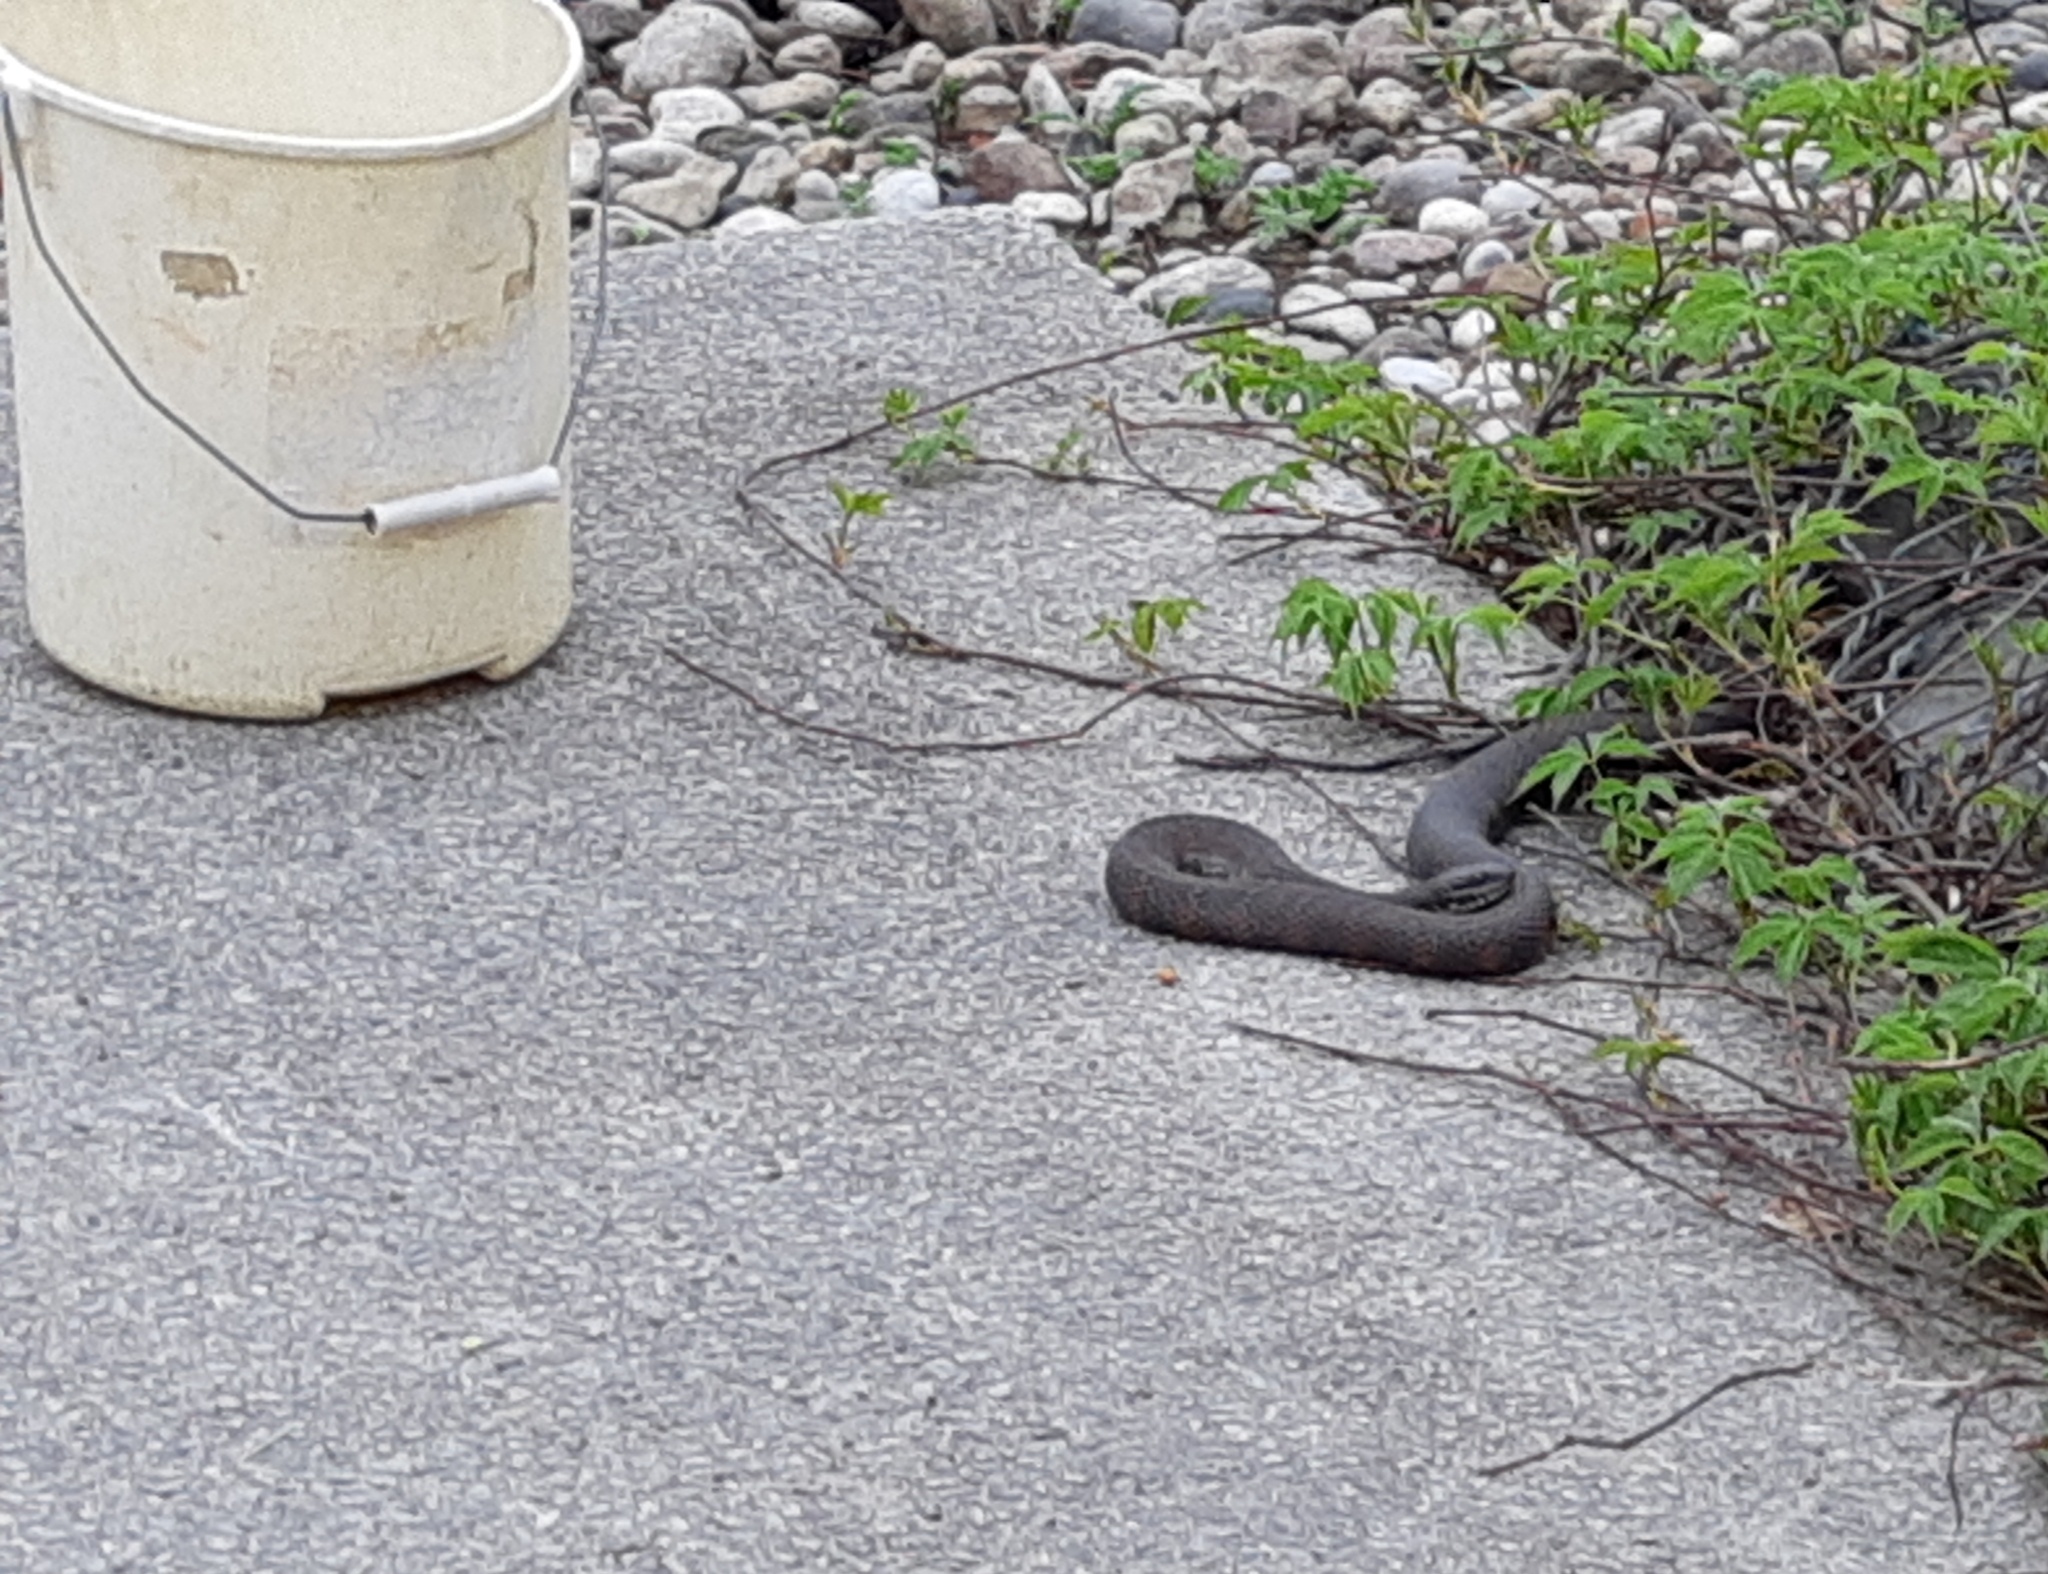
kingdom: Animalia
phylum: Chordata
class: Squamata
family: Colubridae
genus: Nerodia
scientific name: Nerodia sipedon
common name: Northern water snake
